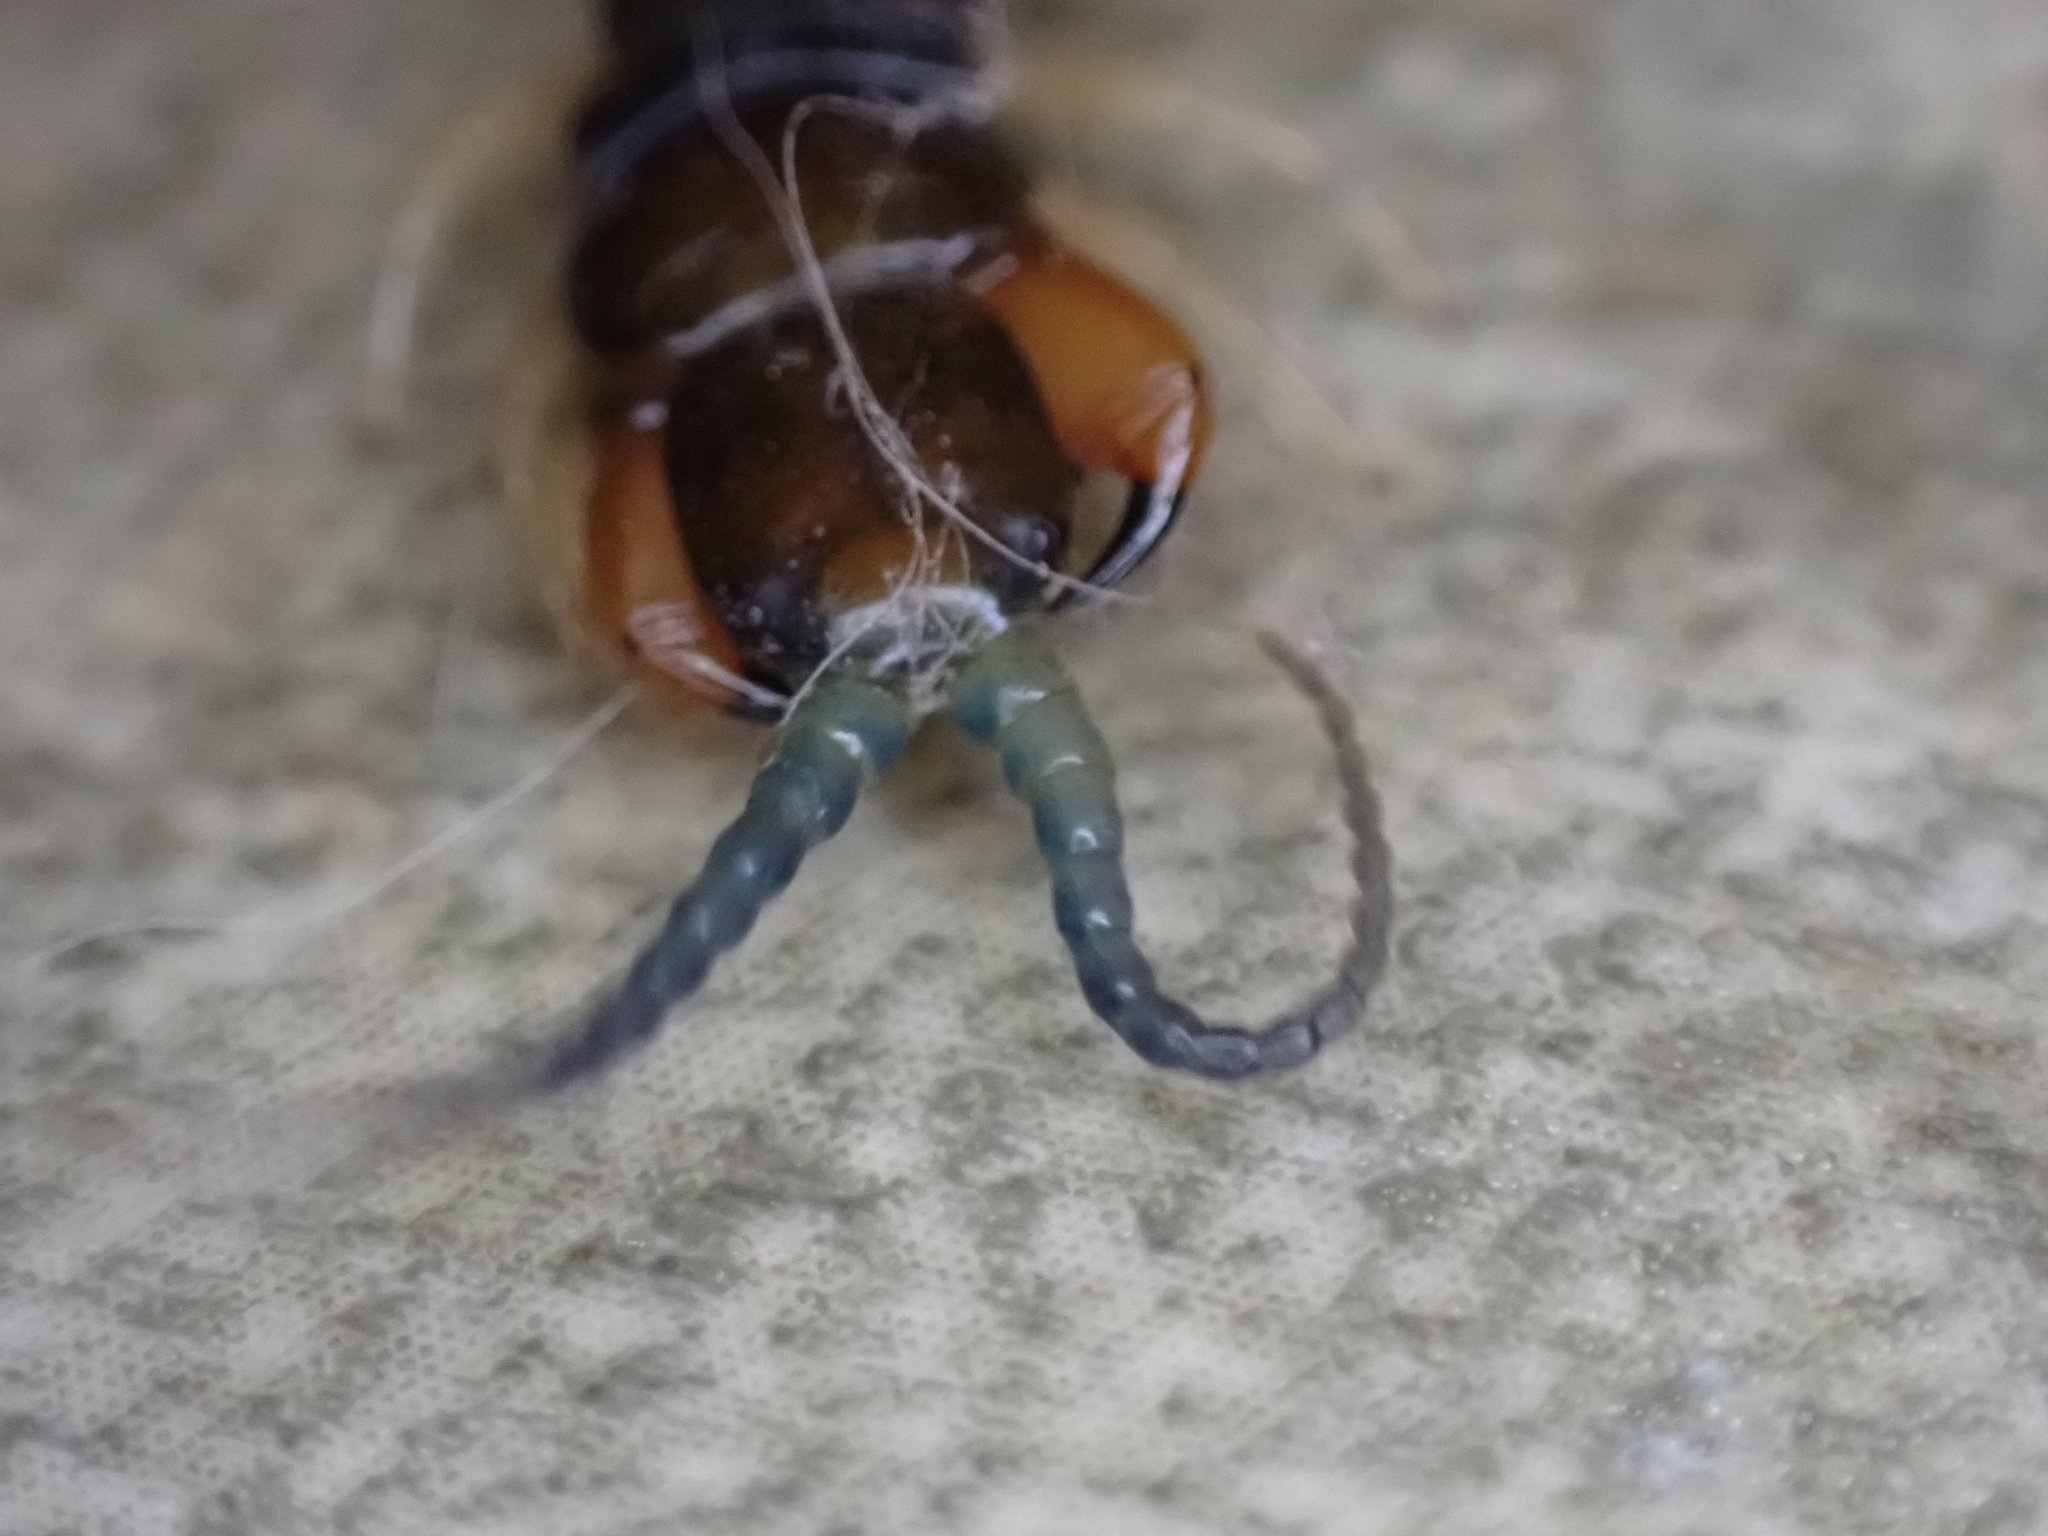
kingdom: Animalia
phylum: Arthropoda
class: Chilopoda
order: Scolopendromorpha
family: Scolopendridae
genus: Hemiscolopendra
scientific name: Hemiscolopendra marginata
